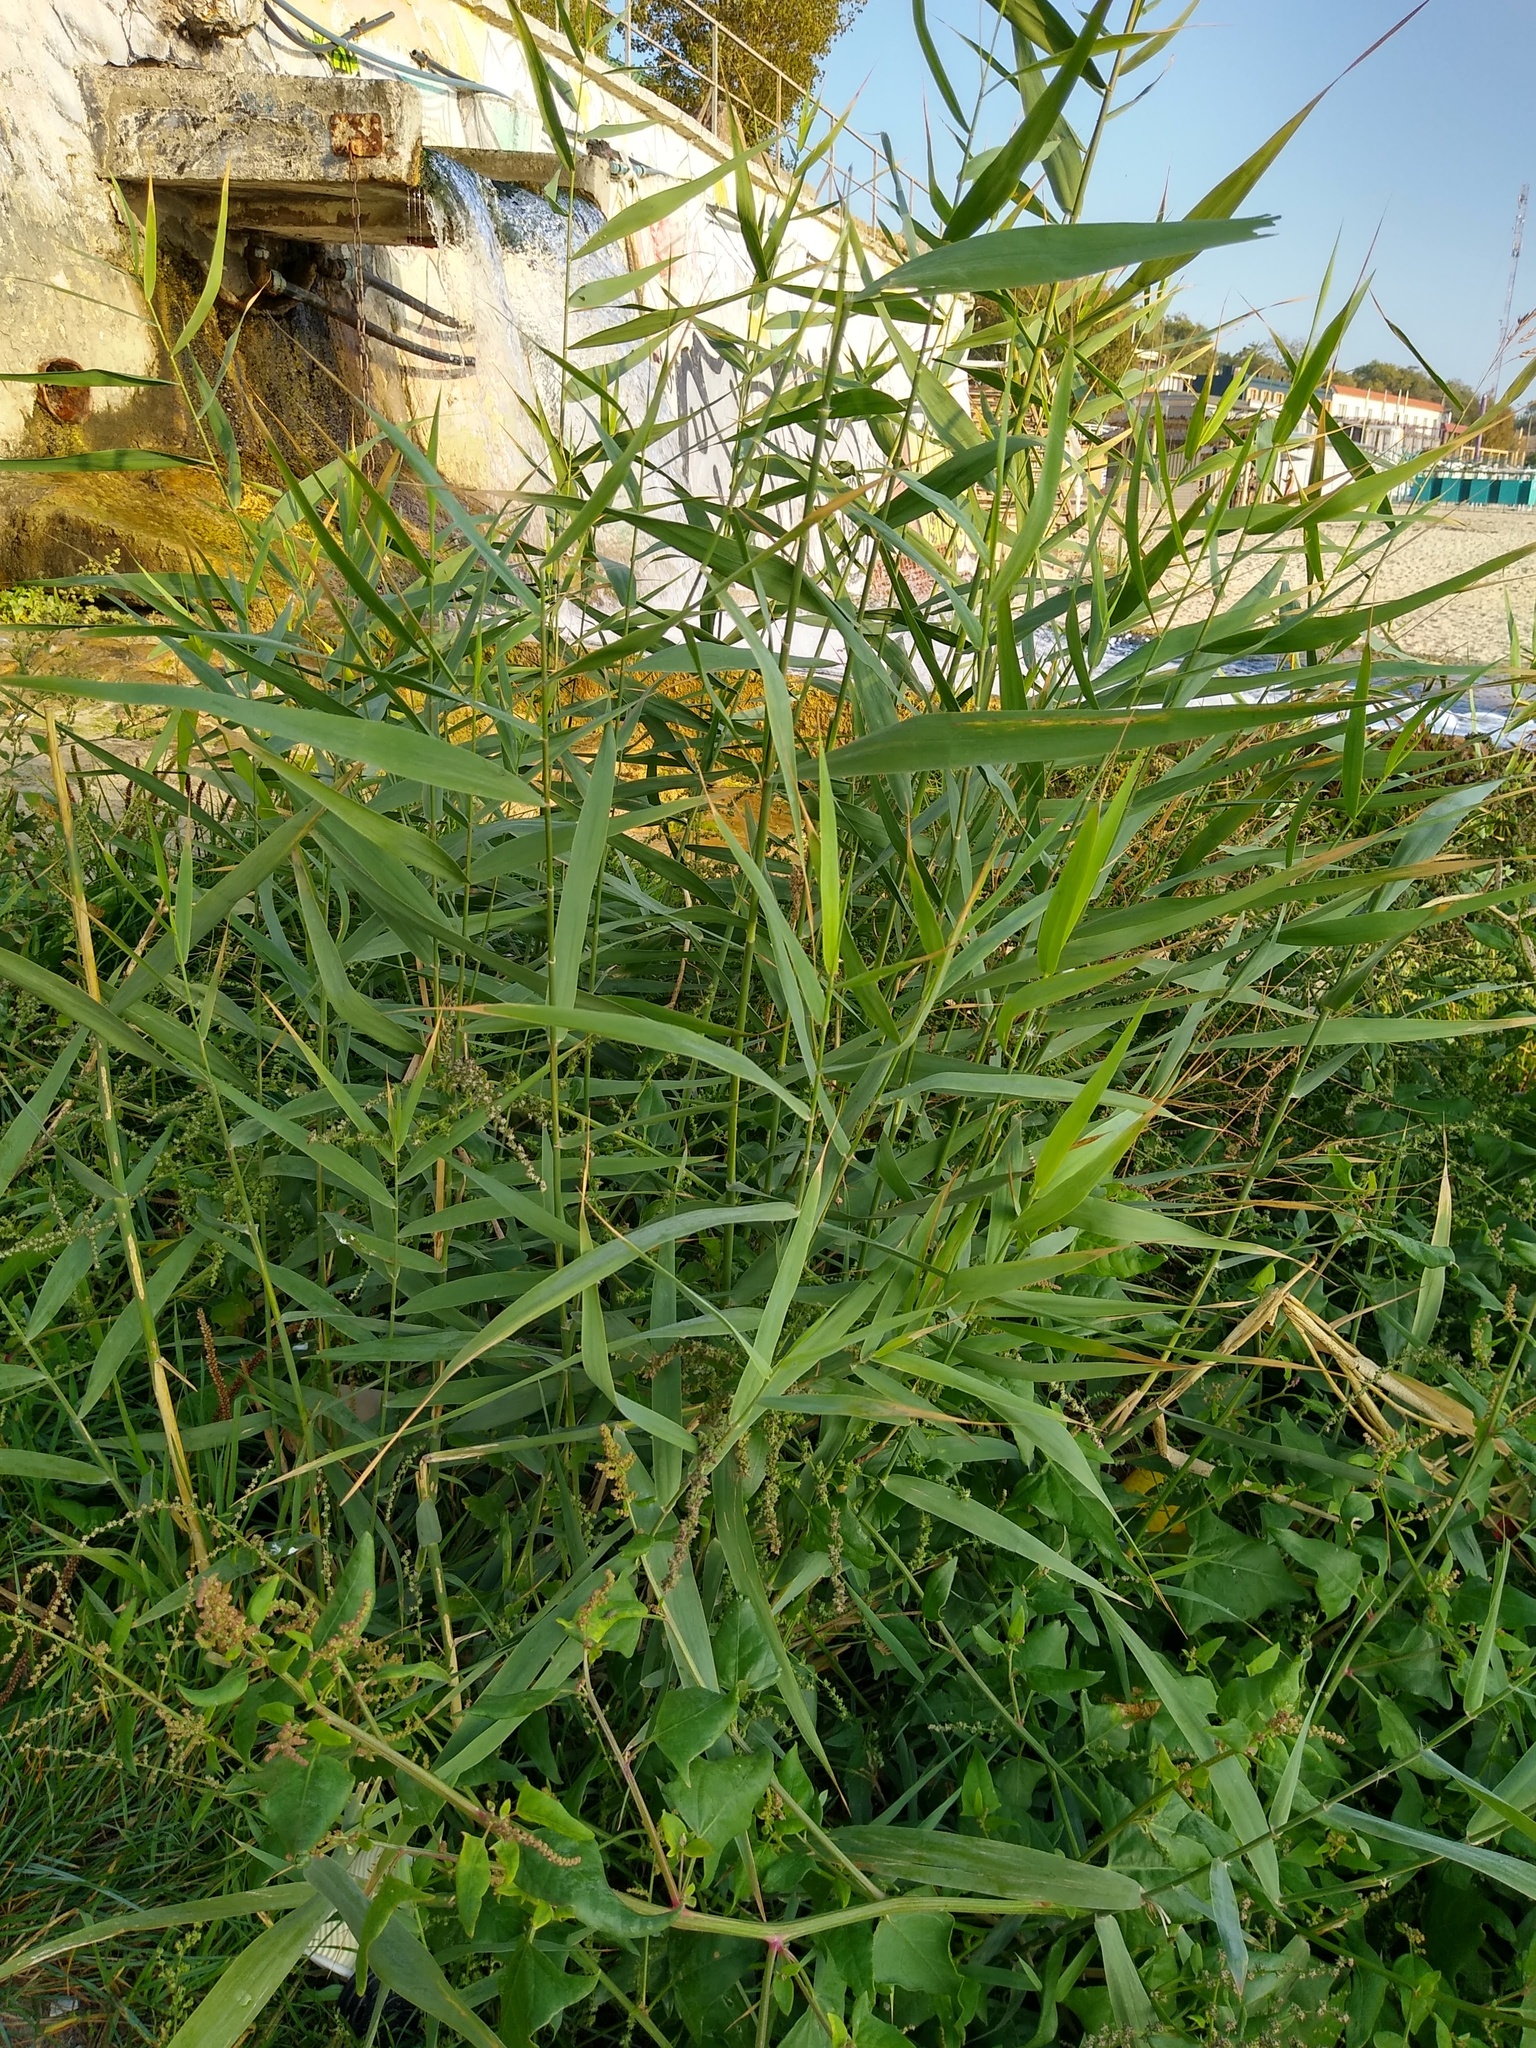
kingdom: Plantae
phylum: Tracheophyta
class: Liliopsida
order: Poales
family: Poaceae
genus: Phragmites
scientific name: Phragmites australis
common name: Common reed
